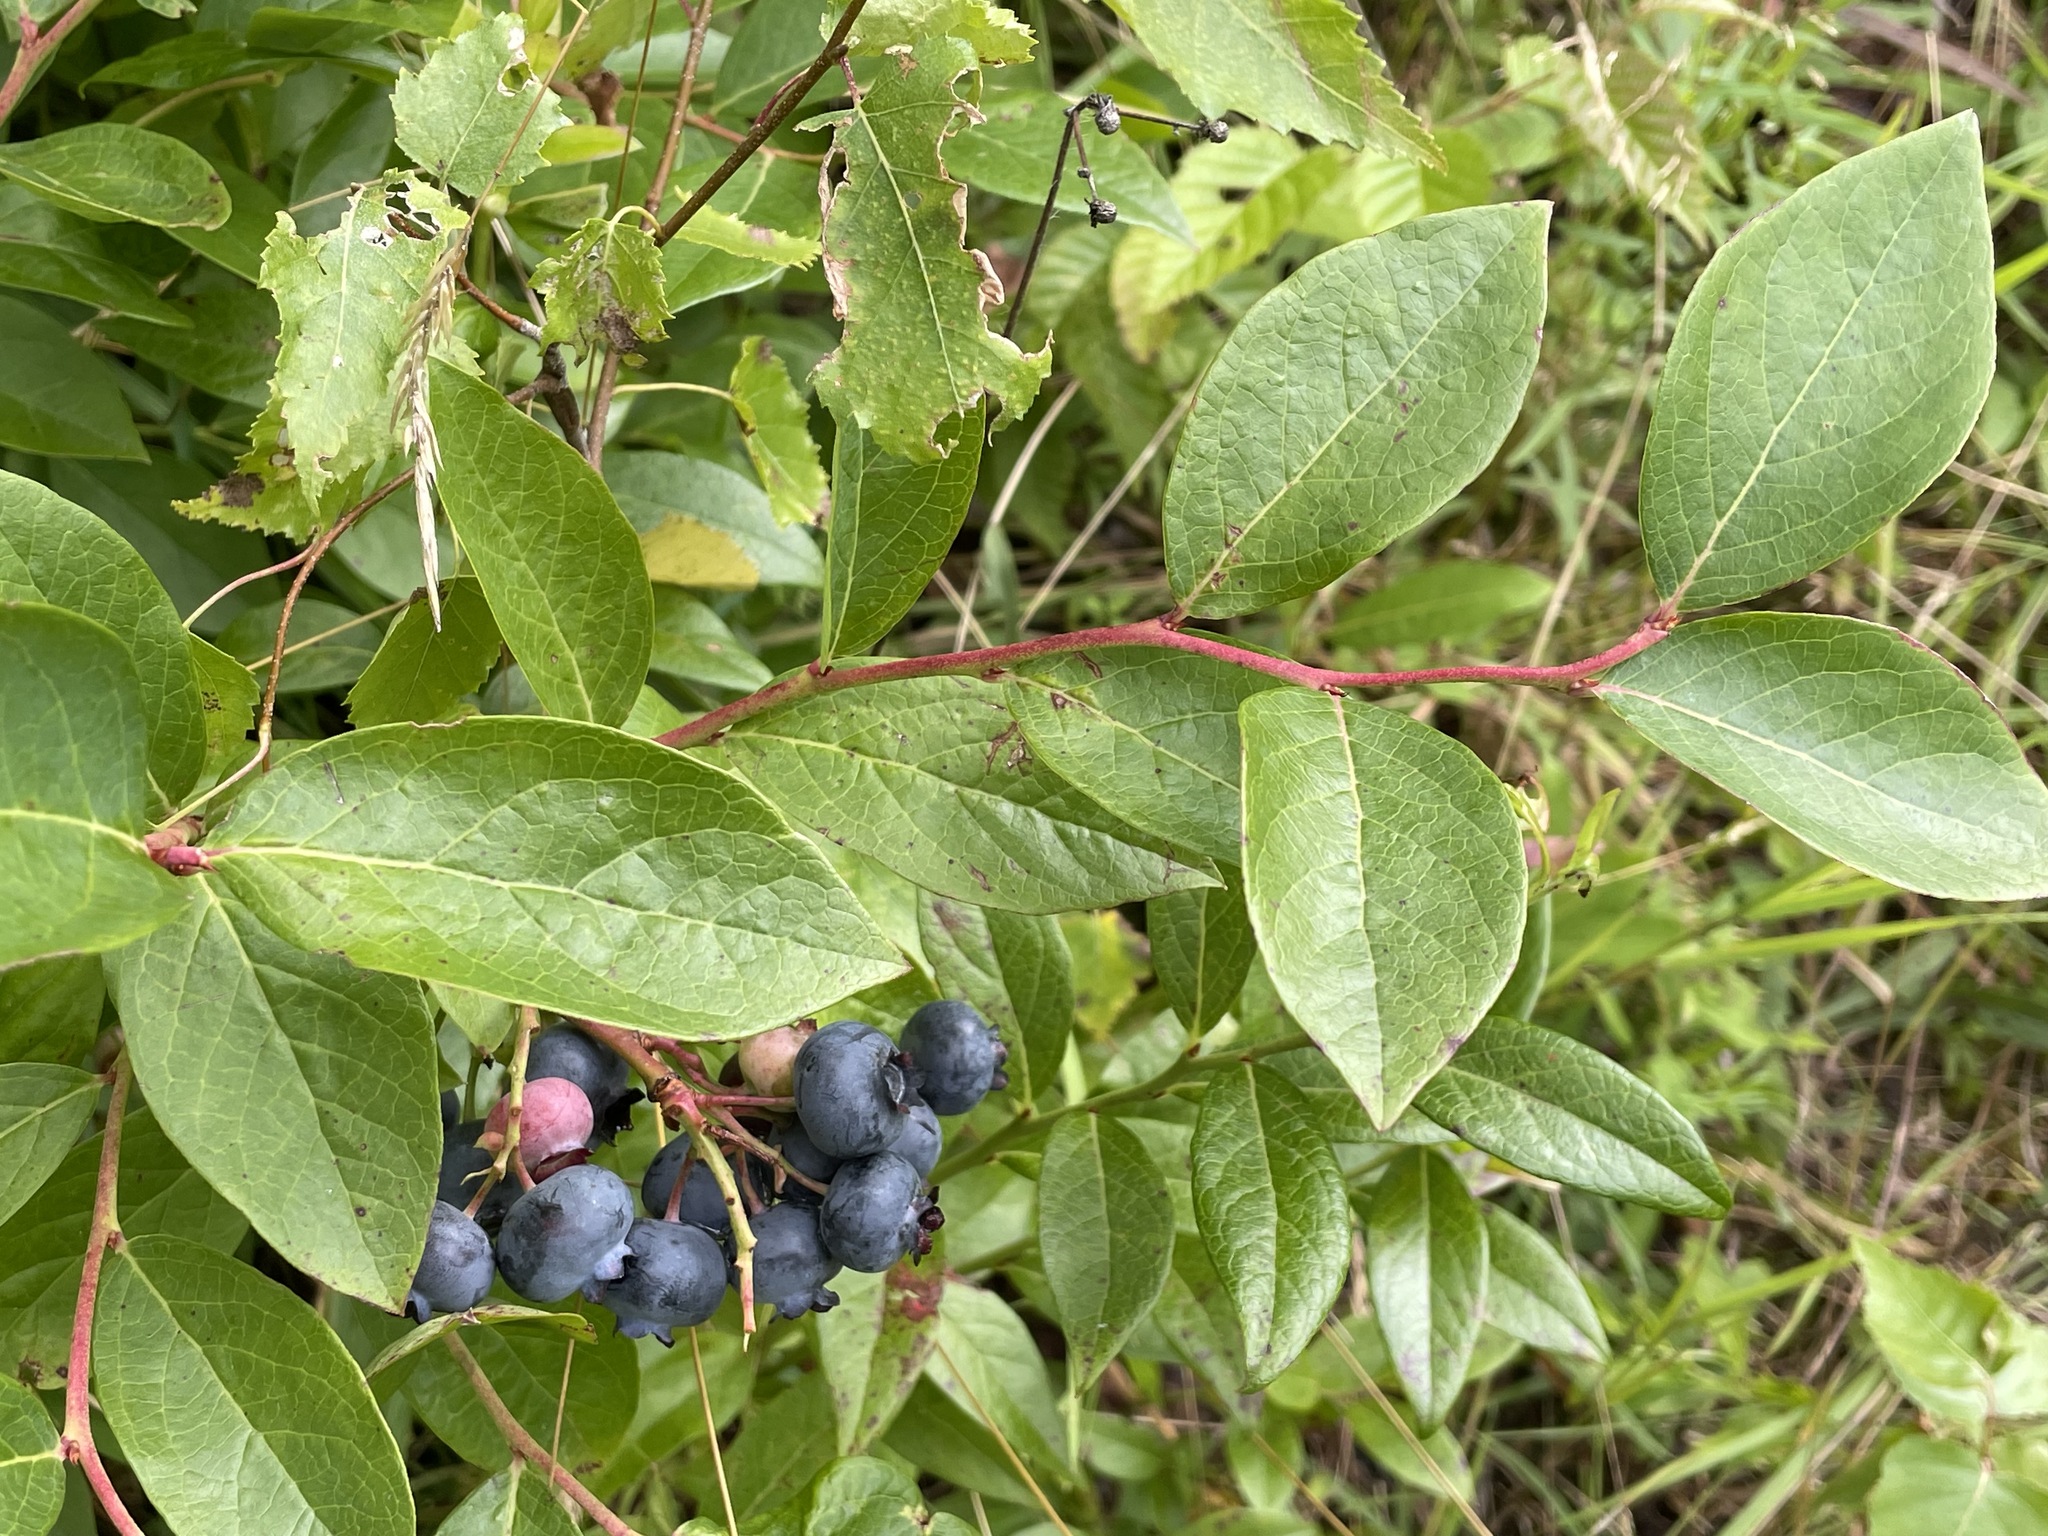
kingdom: Plantae
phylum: Tracheophyta
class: Magnoliopsida
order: Ericales
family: Ericaceae
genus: Vaccinium
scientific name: Vaccinium corymbosum
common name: Blueberry
